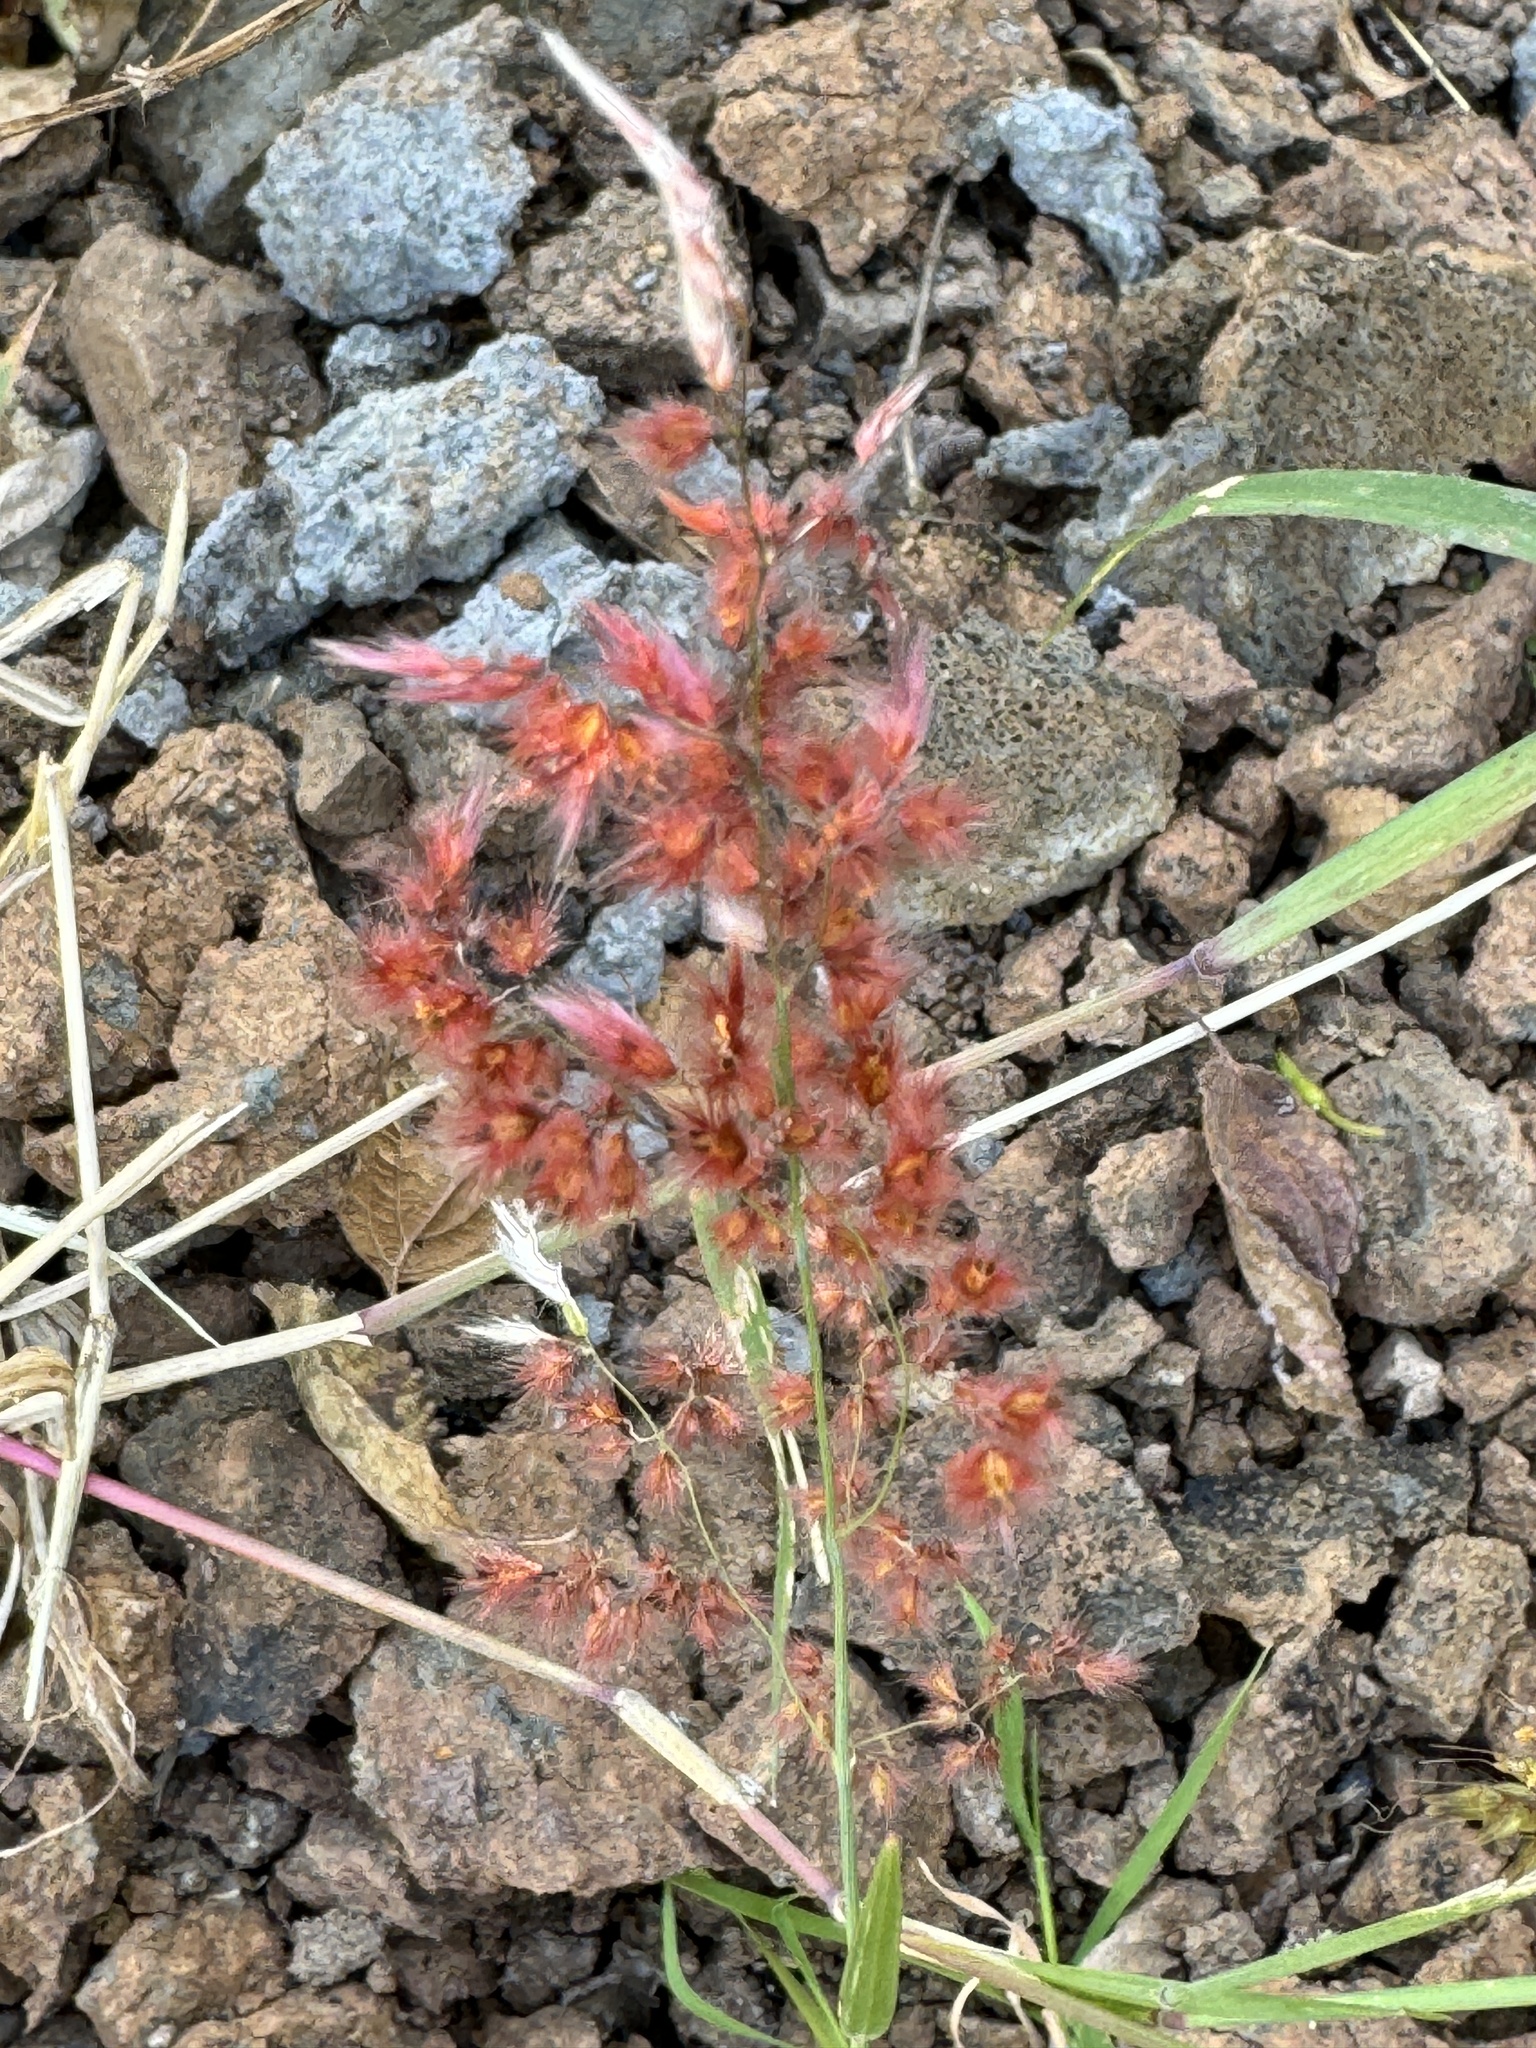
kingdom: Plantae
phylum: Tracheophyta
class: Liliopsida
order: Poales
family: Poaceae
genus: Melinis
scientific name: Melinis repens
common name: Rose natal grass
